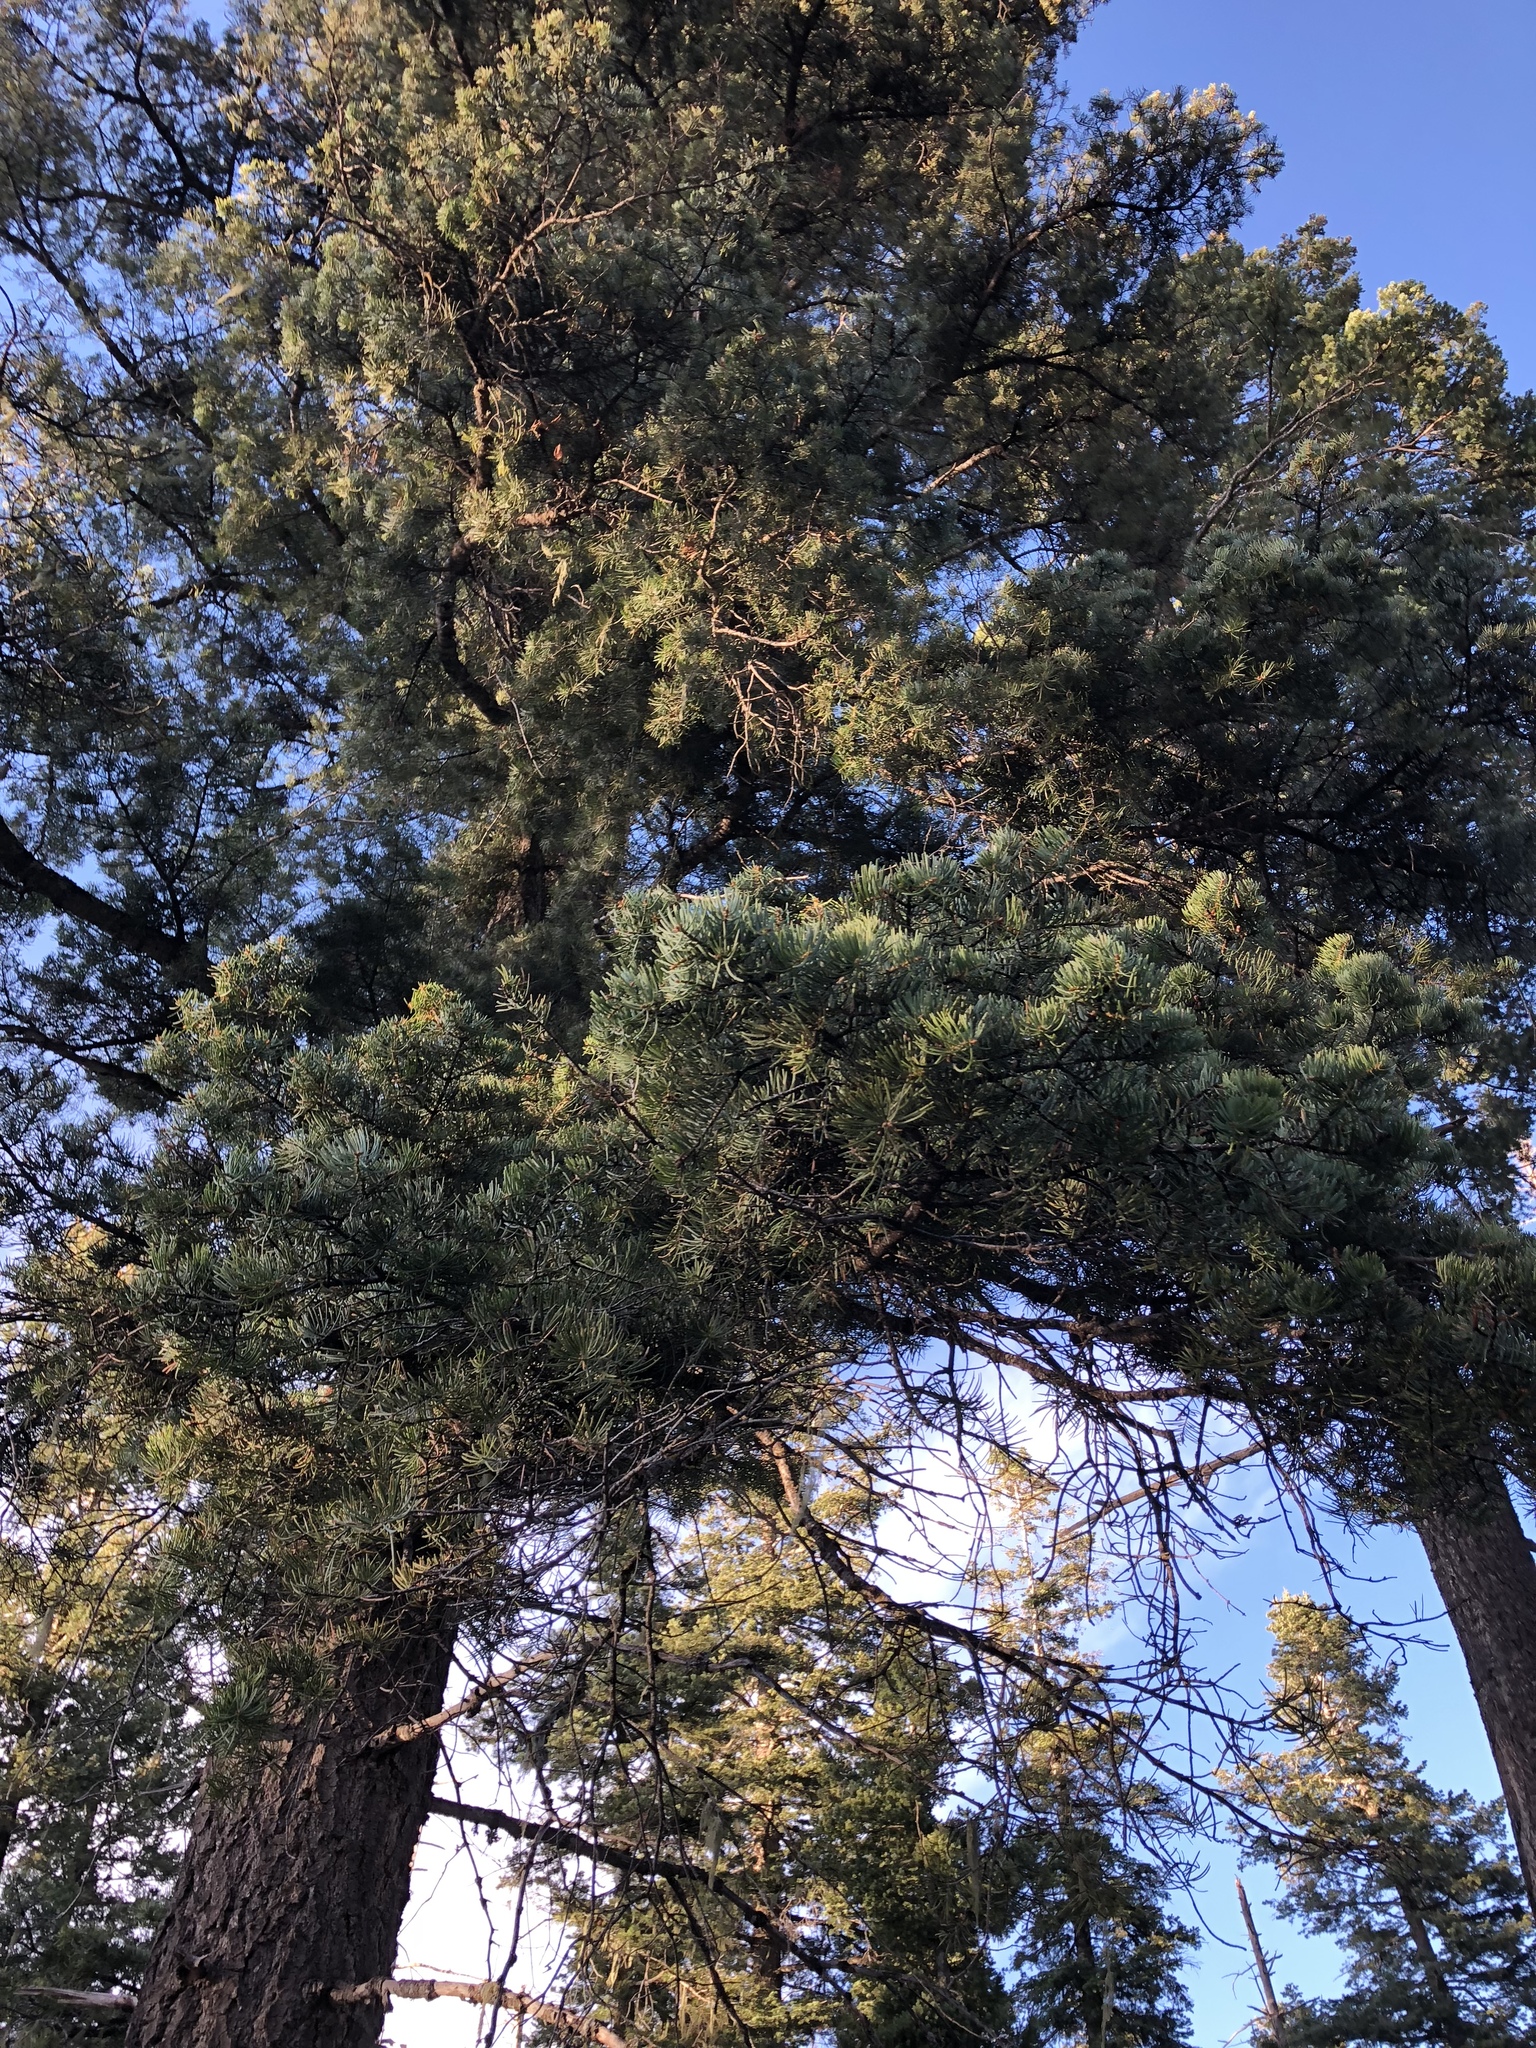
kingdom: Plantae
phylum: Tracheophyta
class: Pinopsida
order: Pinales
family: Pinaceae
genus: Pseudotsuga
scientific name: Pseudotsuga menziesii
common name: Douglas fir
